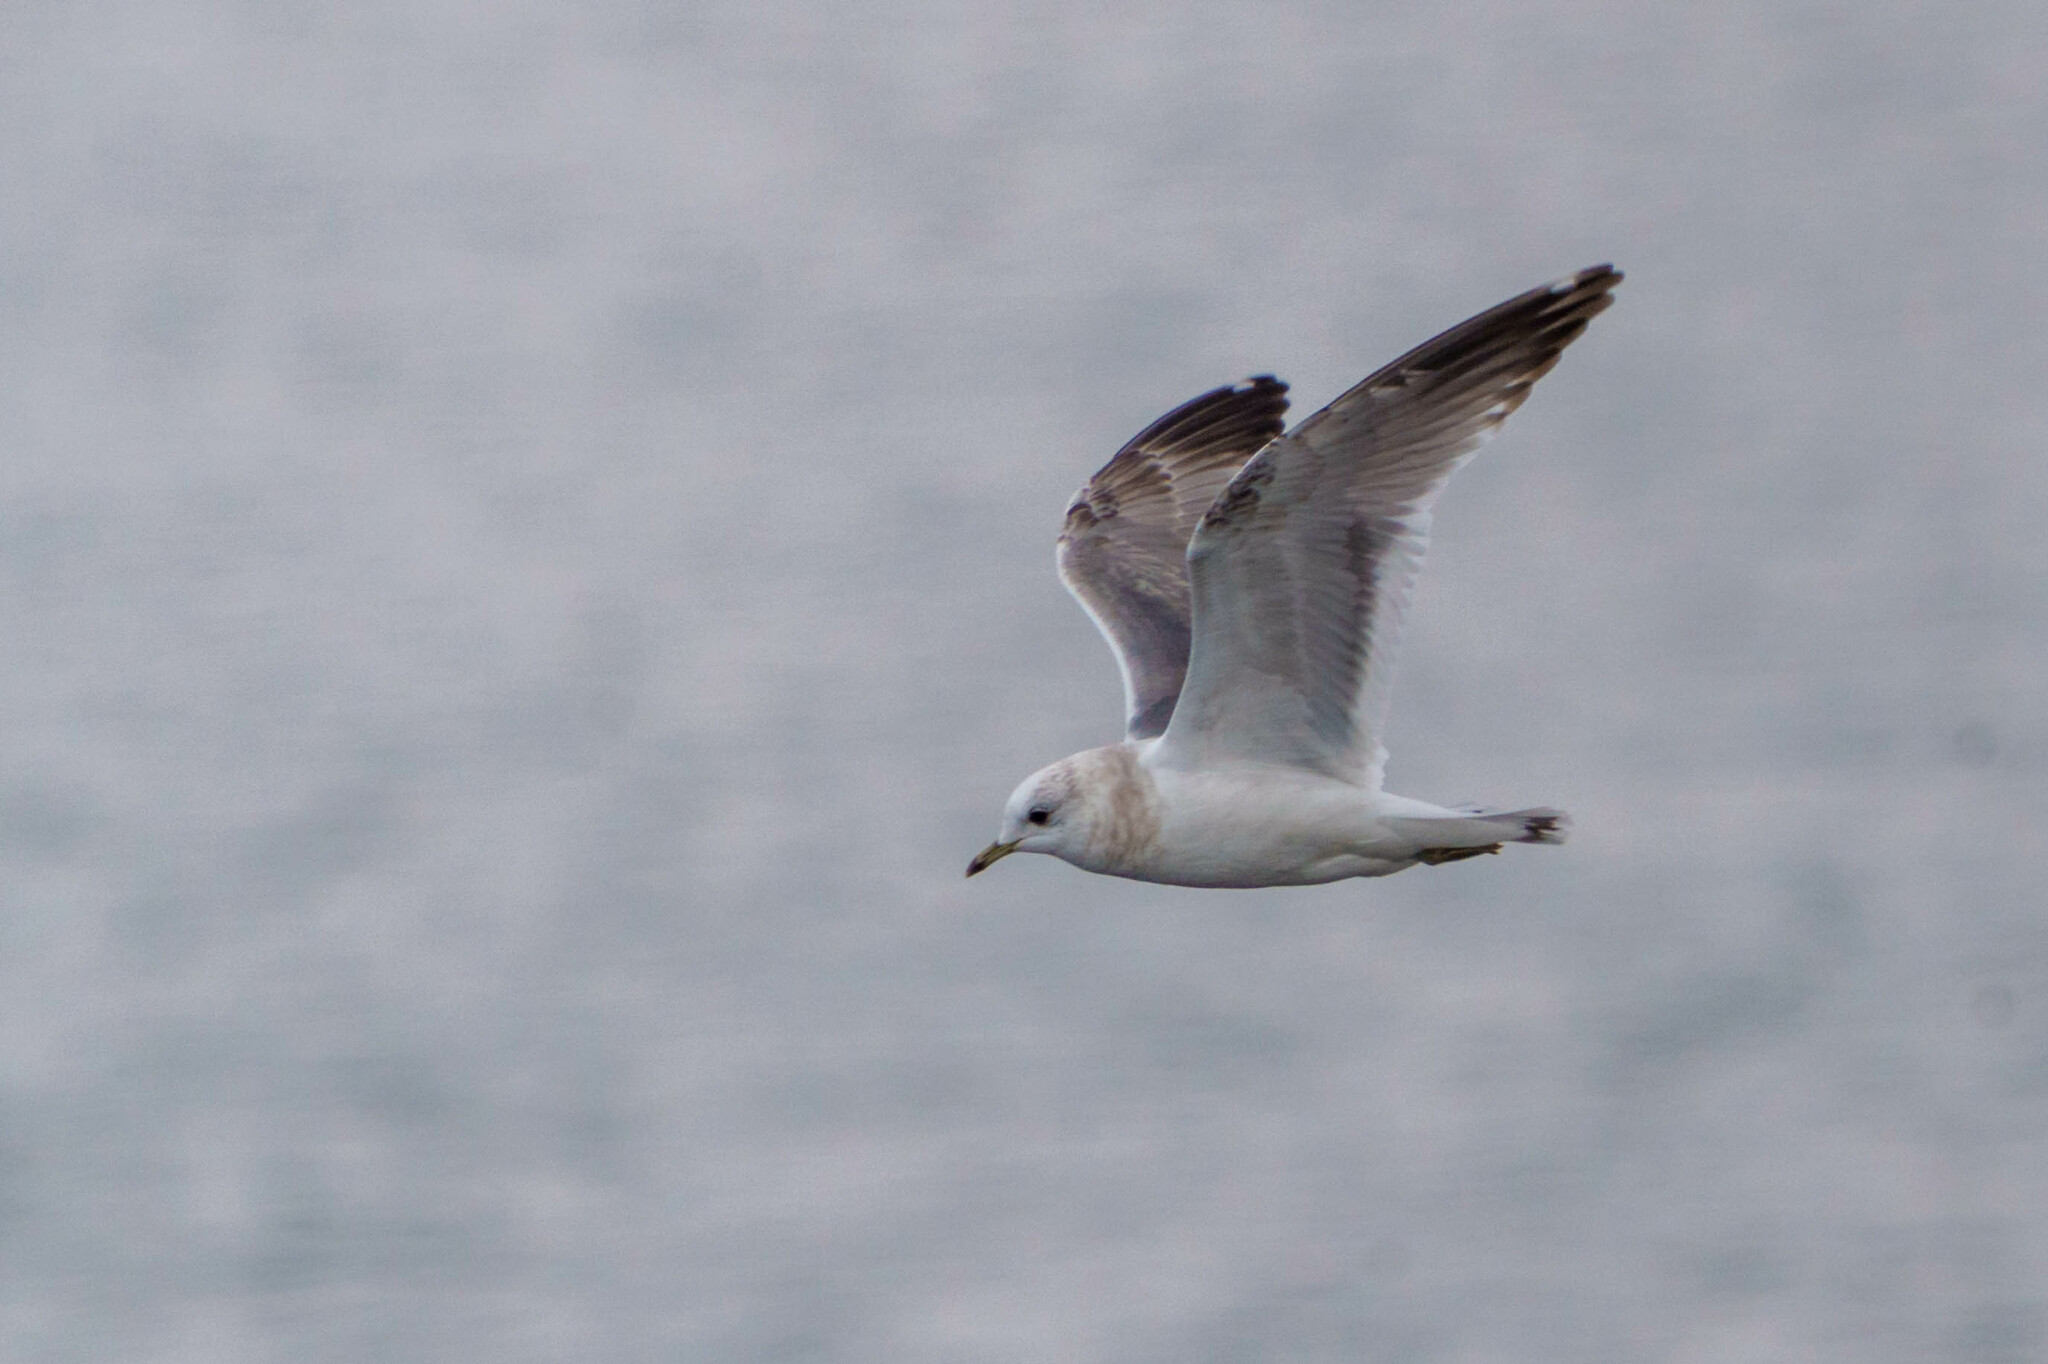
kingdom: Animalia
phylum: Chordata
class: Aves
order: Charadriiformes
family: Laridae
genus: Larus
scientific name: Larus brachyrhynchus
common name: Short-billed gull
